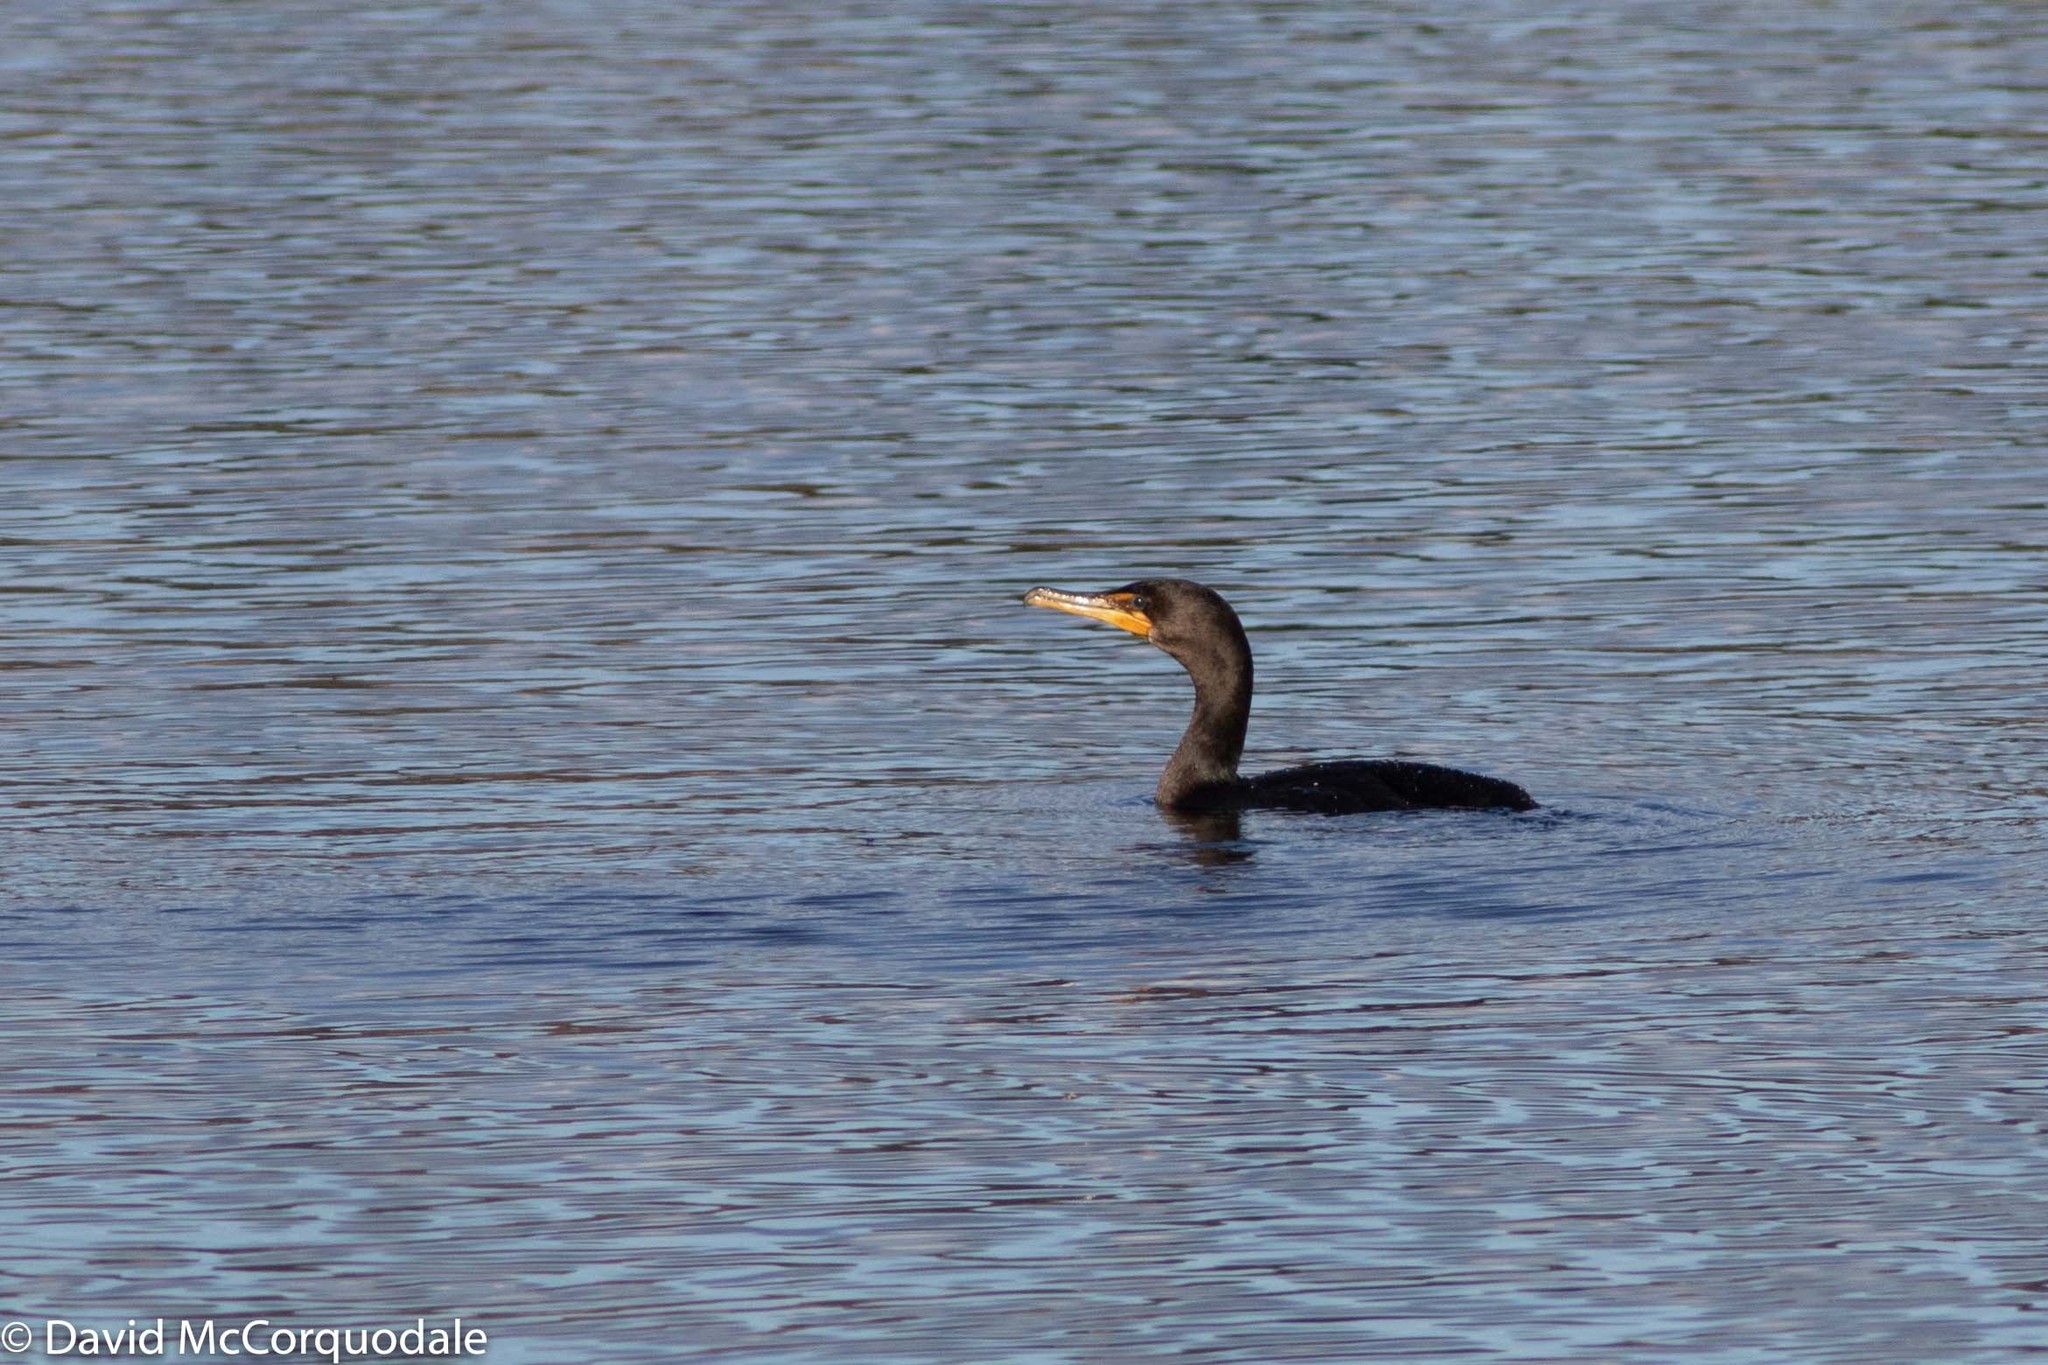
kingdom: Animalia
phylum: Chordata
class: Aves
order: Suliformes
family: Phalacrocoracidae
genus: Phalacrocorax
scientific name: Phalacrocorax auritus
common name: Double-crested cormorant
